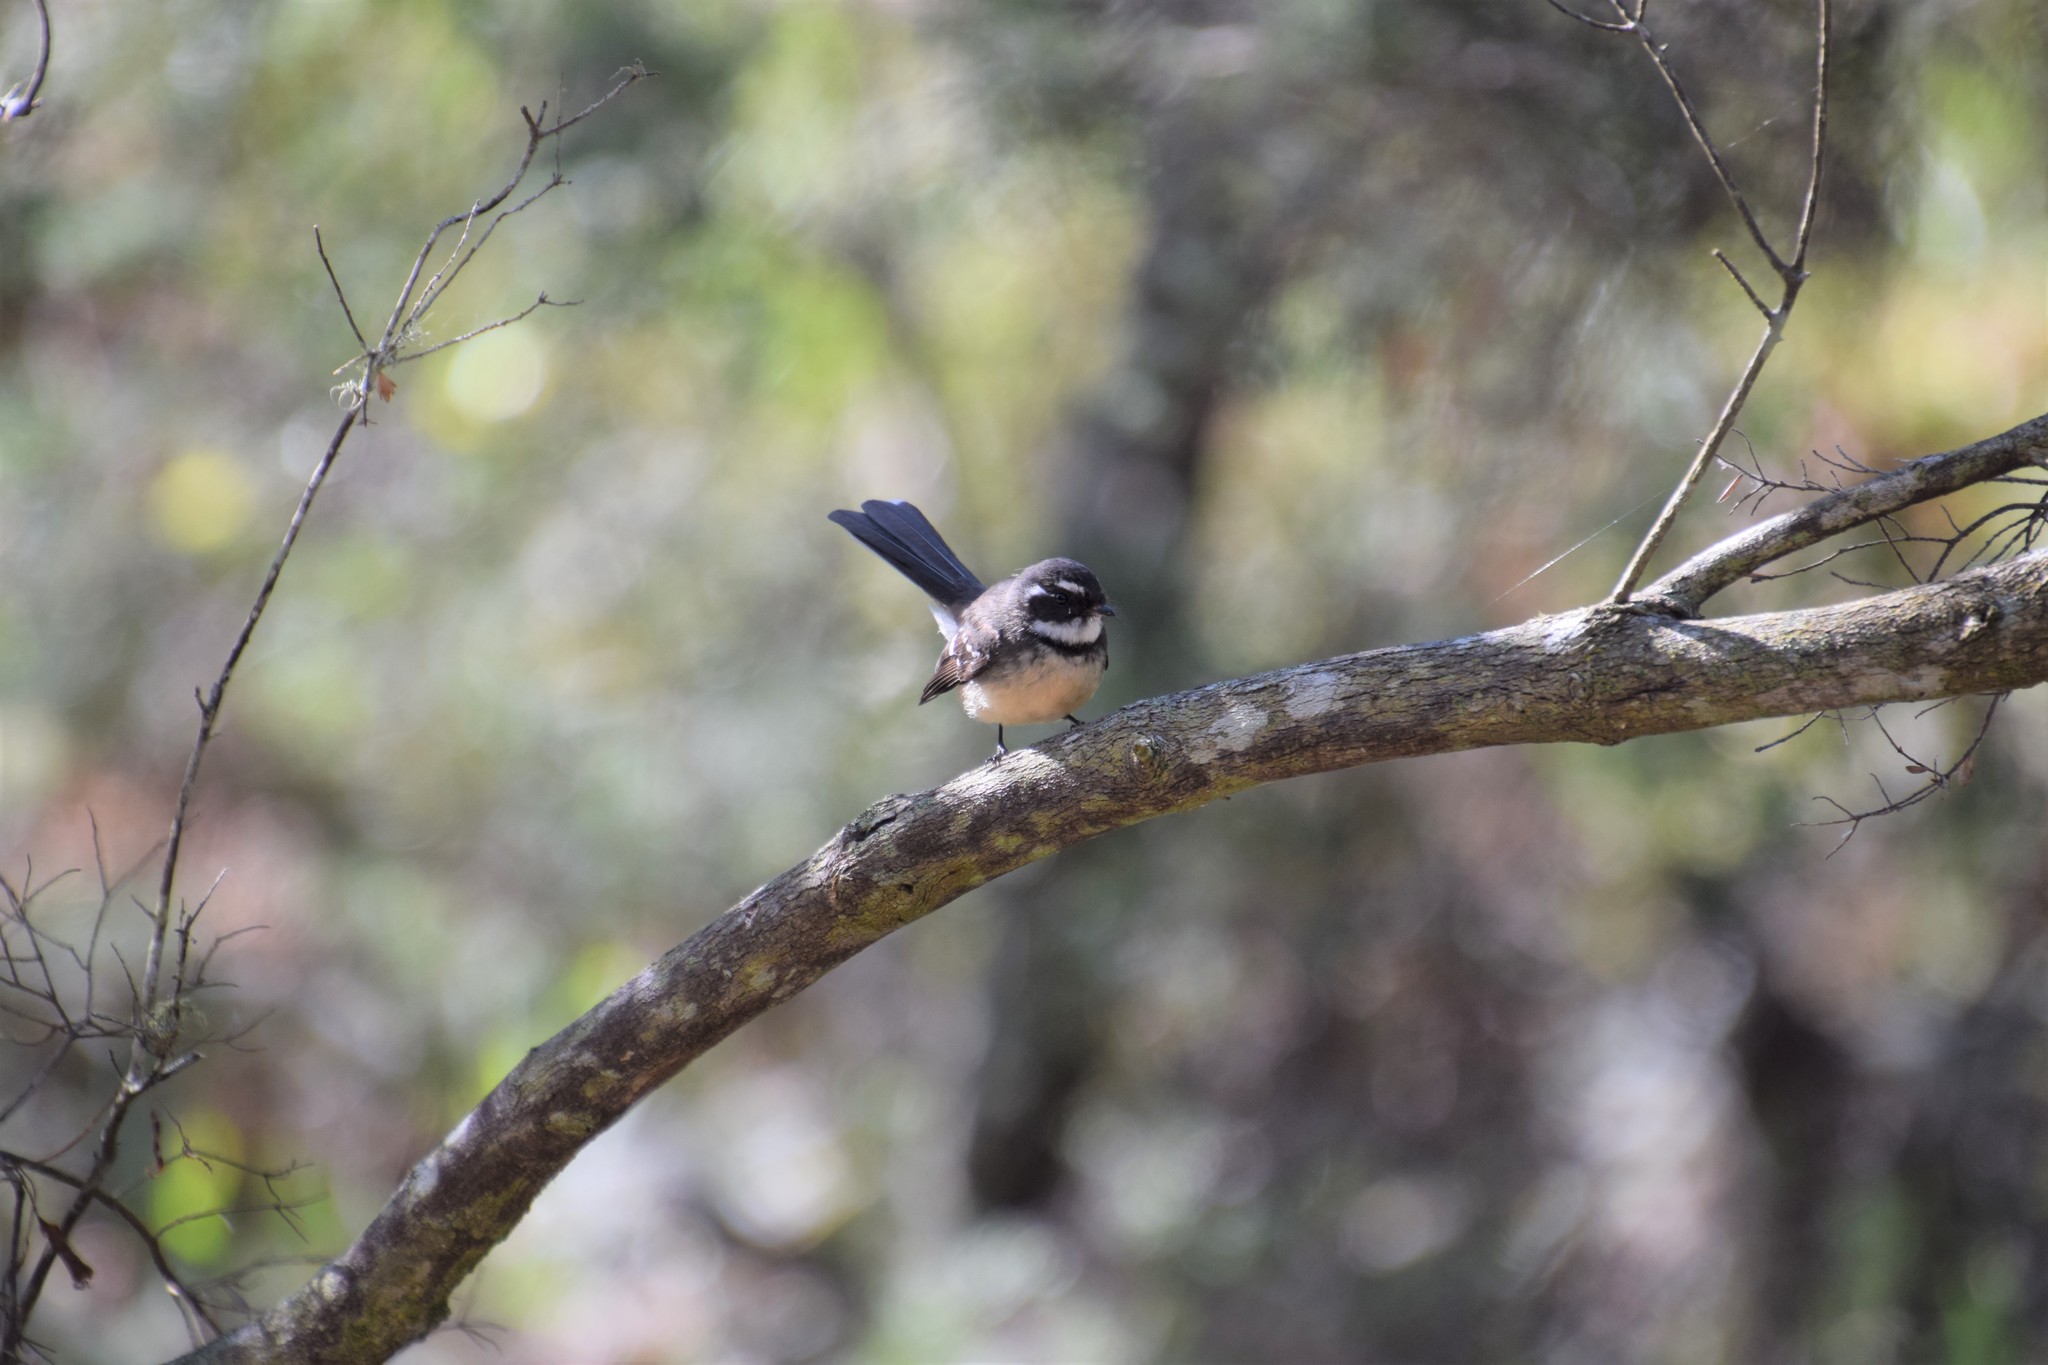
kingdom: Animalia
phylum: Chordata
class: Aves
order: Passeriformes
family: Rhipiduridae
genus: Rhipidura
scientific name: Rhipidura albiscapa
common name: Grey fantail
